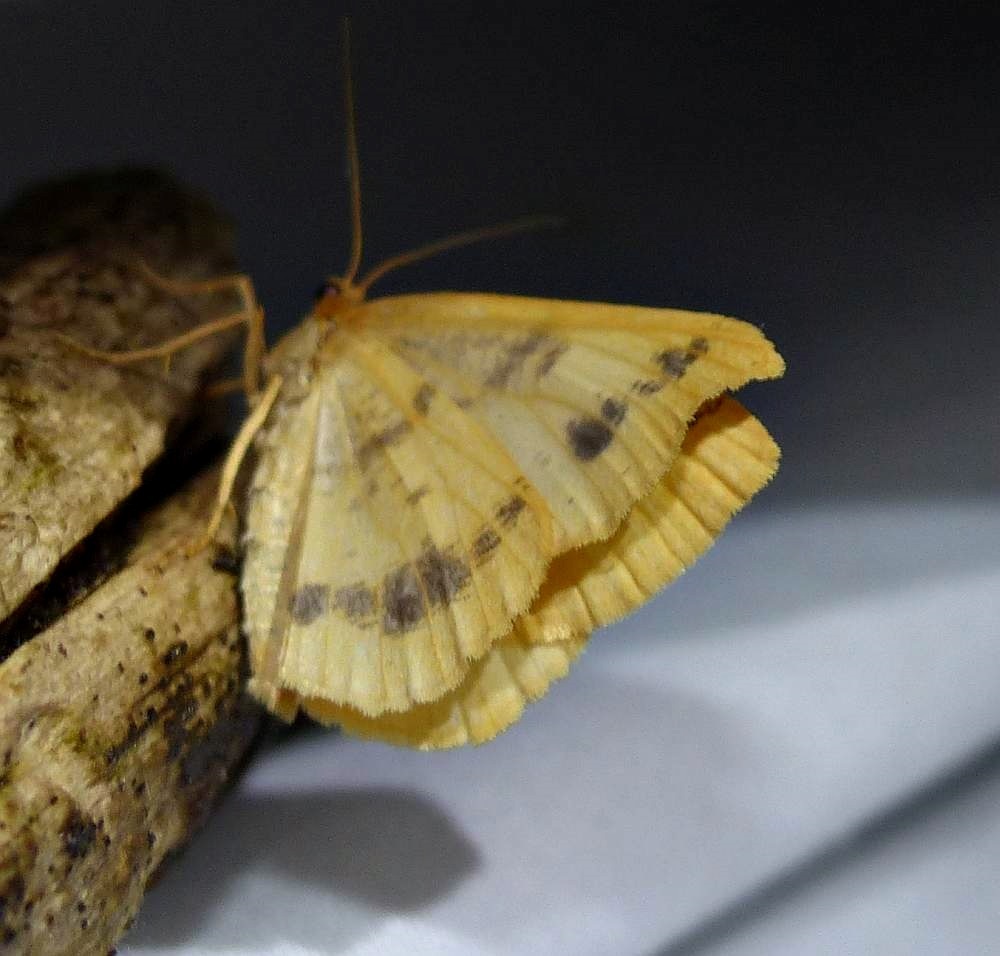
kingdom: Animalia
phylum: Arthropoda
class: Insecta
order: Lepidoptera
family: Geometridae
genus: Macaria
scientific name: Macaria ribearia
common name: Currant spanworm moth
